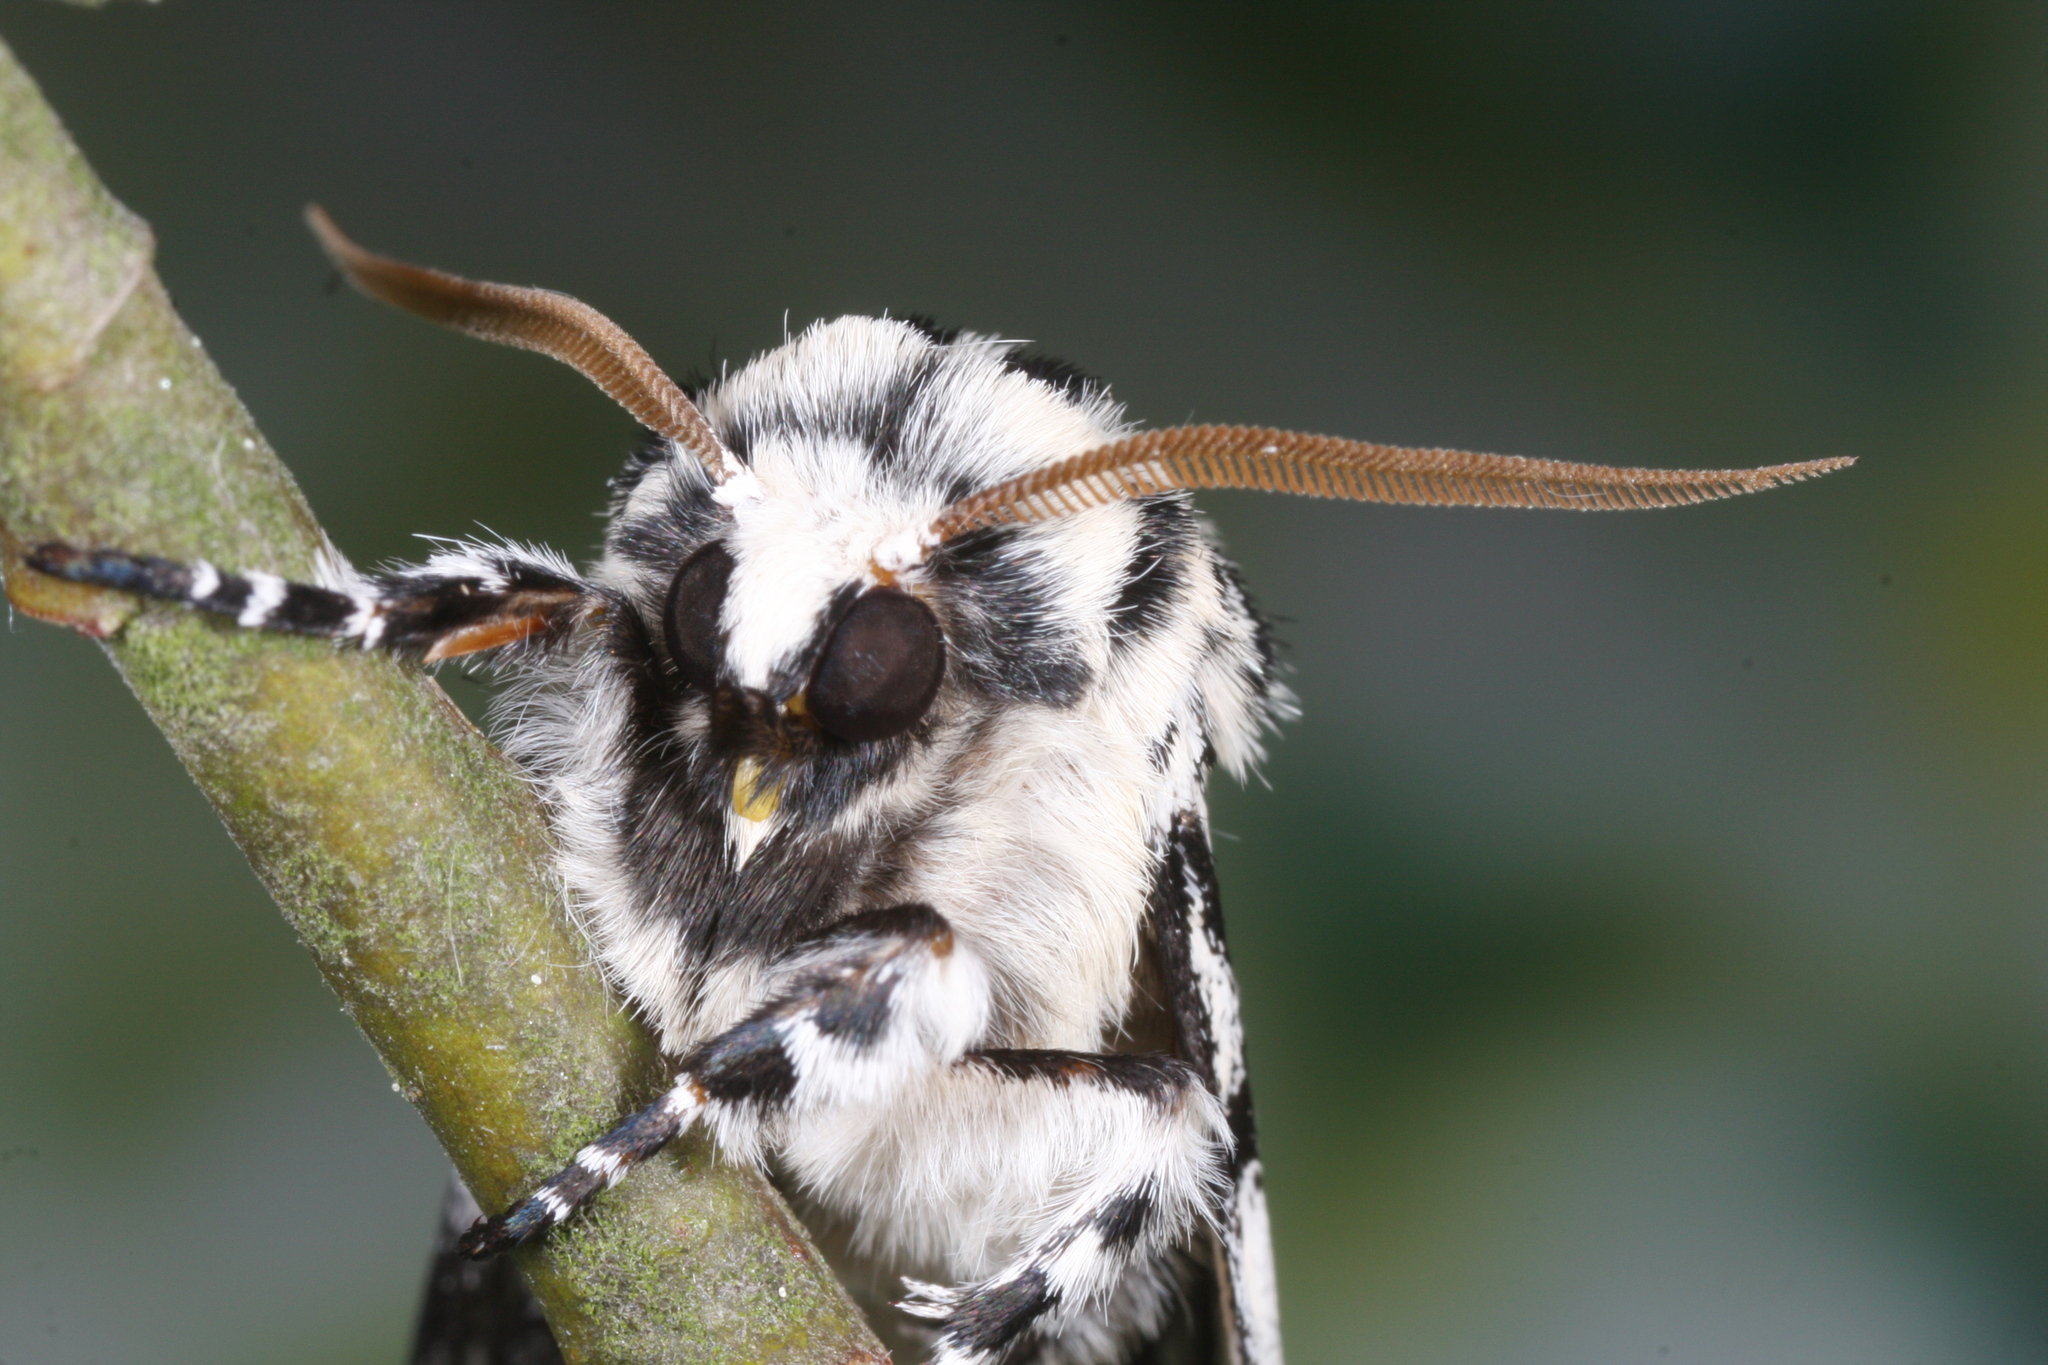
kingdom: Animalia
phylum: Arthropoda
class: Insecta
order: Lepidoptera
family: Noctuidae
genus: Panthea
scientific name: Panthea coenobita
